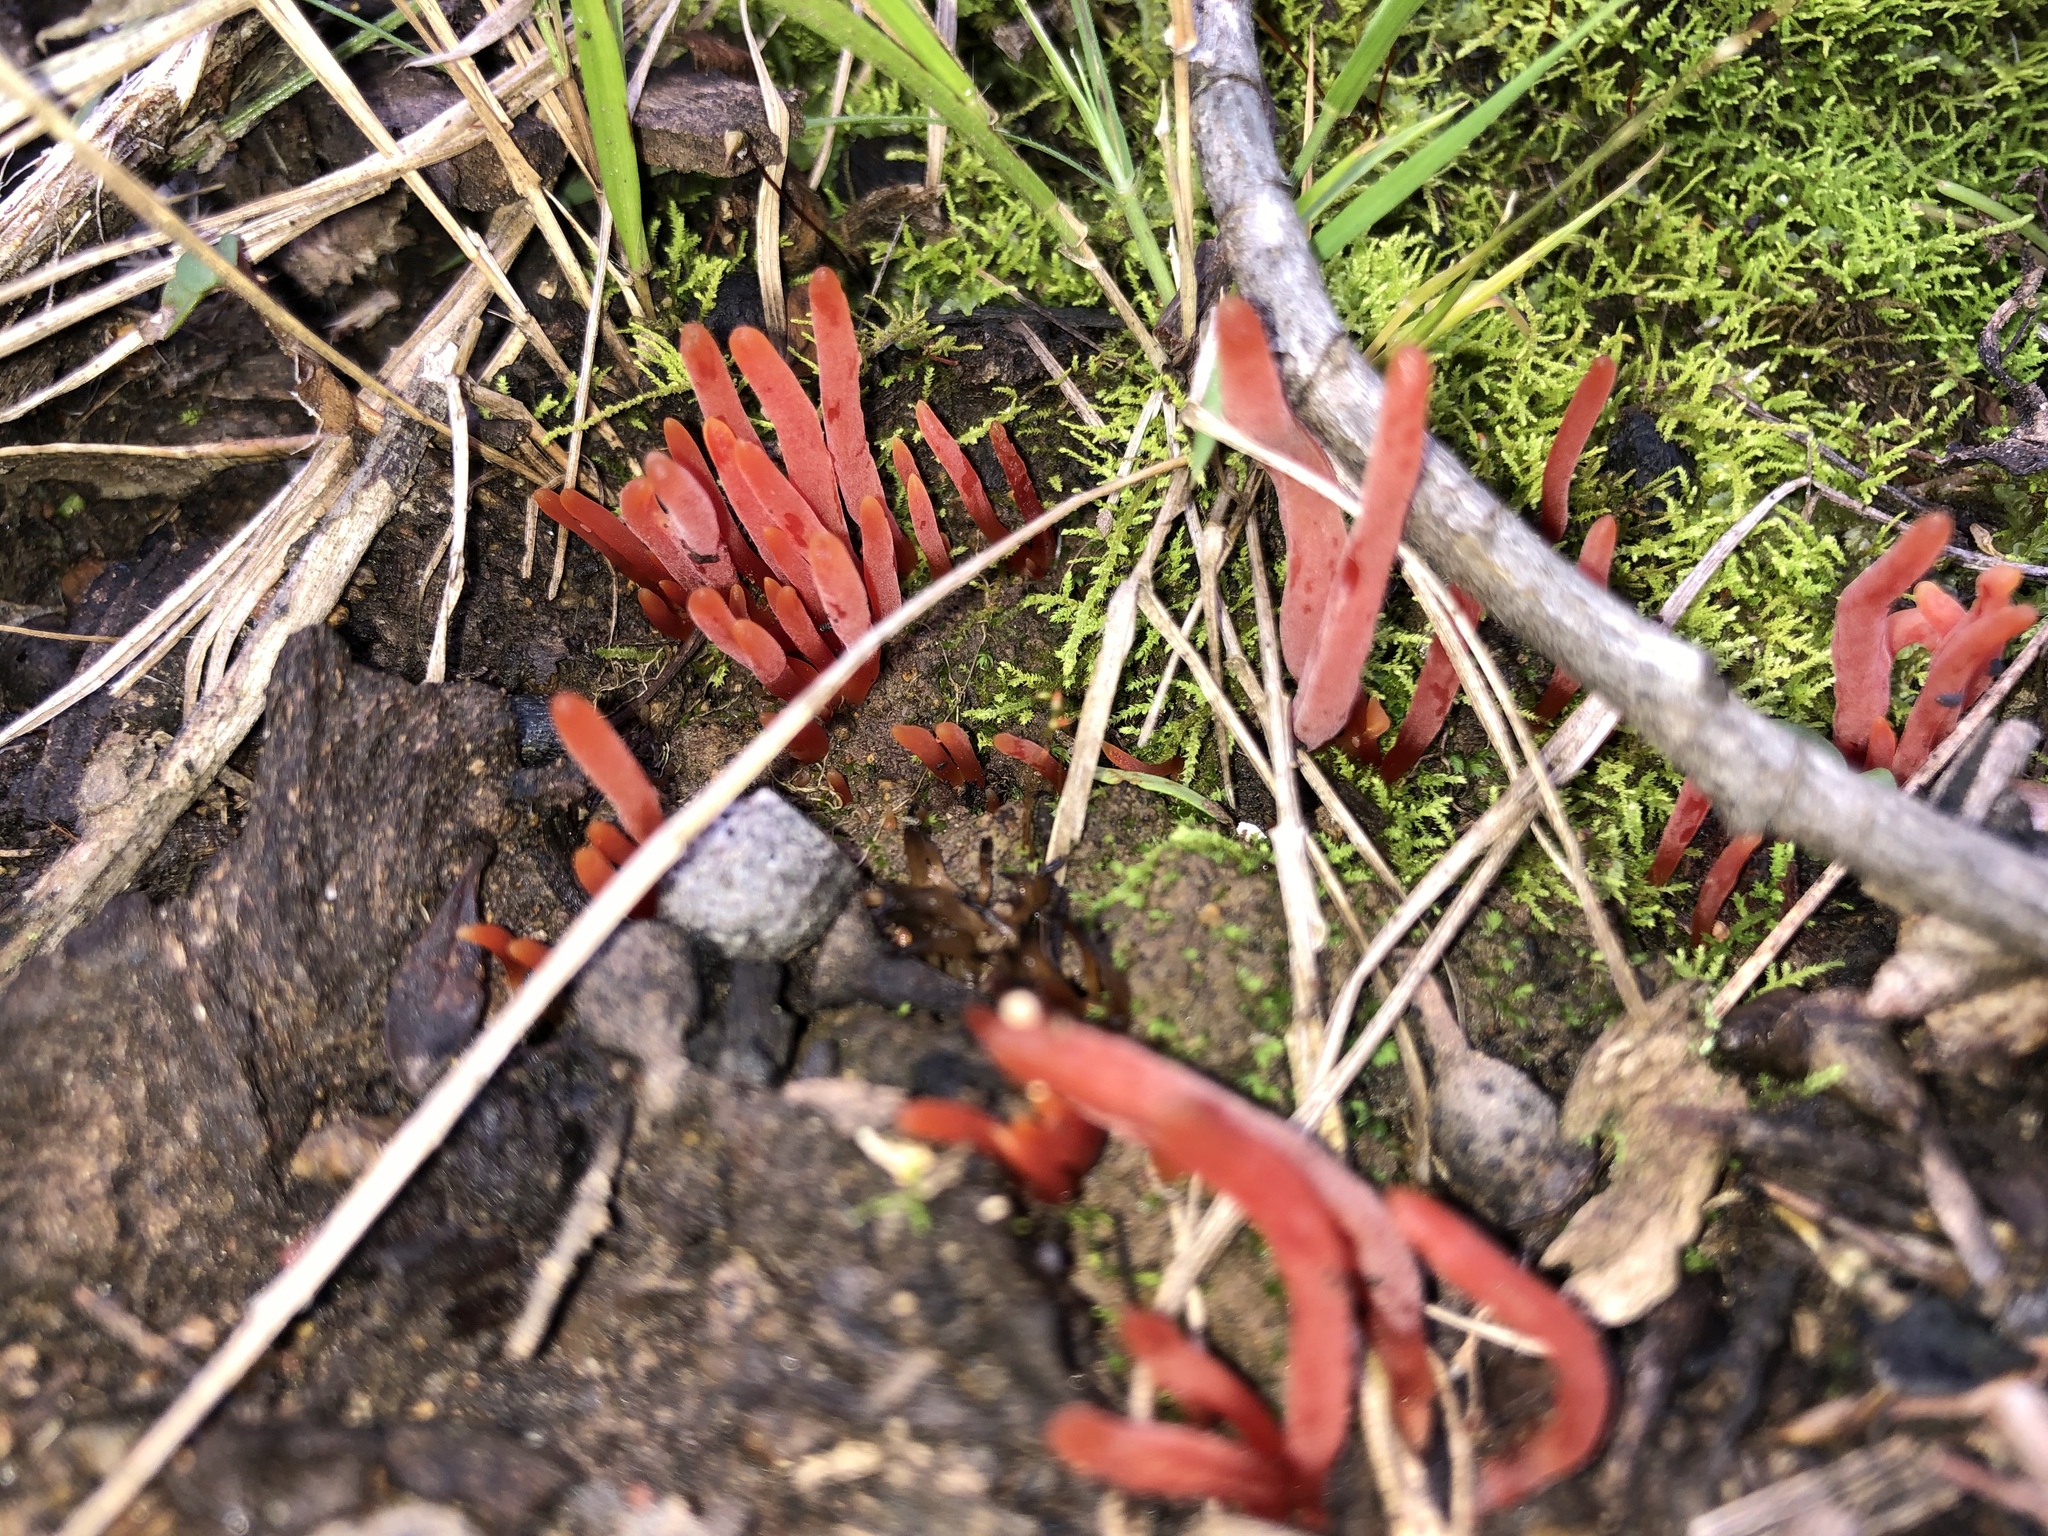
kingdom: Fungi
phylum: Basidiomycota
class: Agaricomycetes
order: Agaricales
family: Clavariaceae
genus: Clavulinopsis
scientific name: Clavulinopsis corallinorosacea
